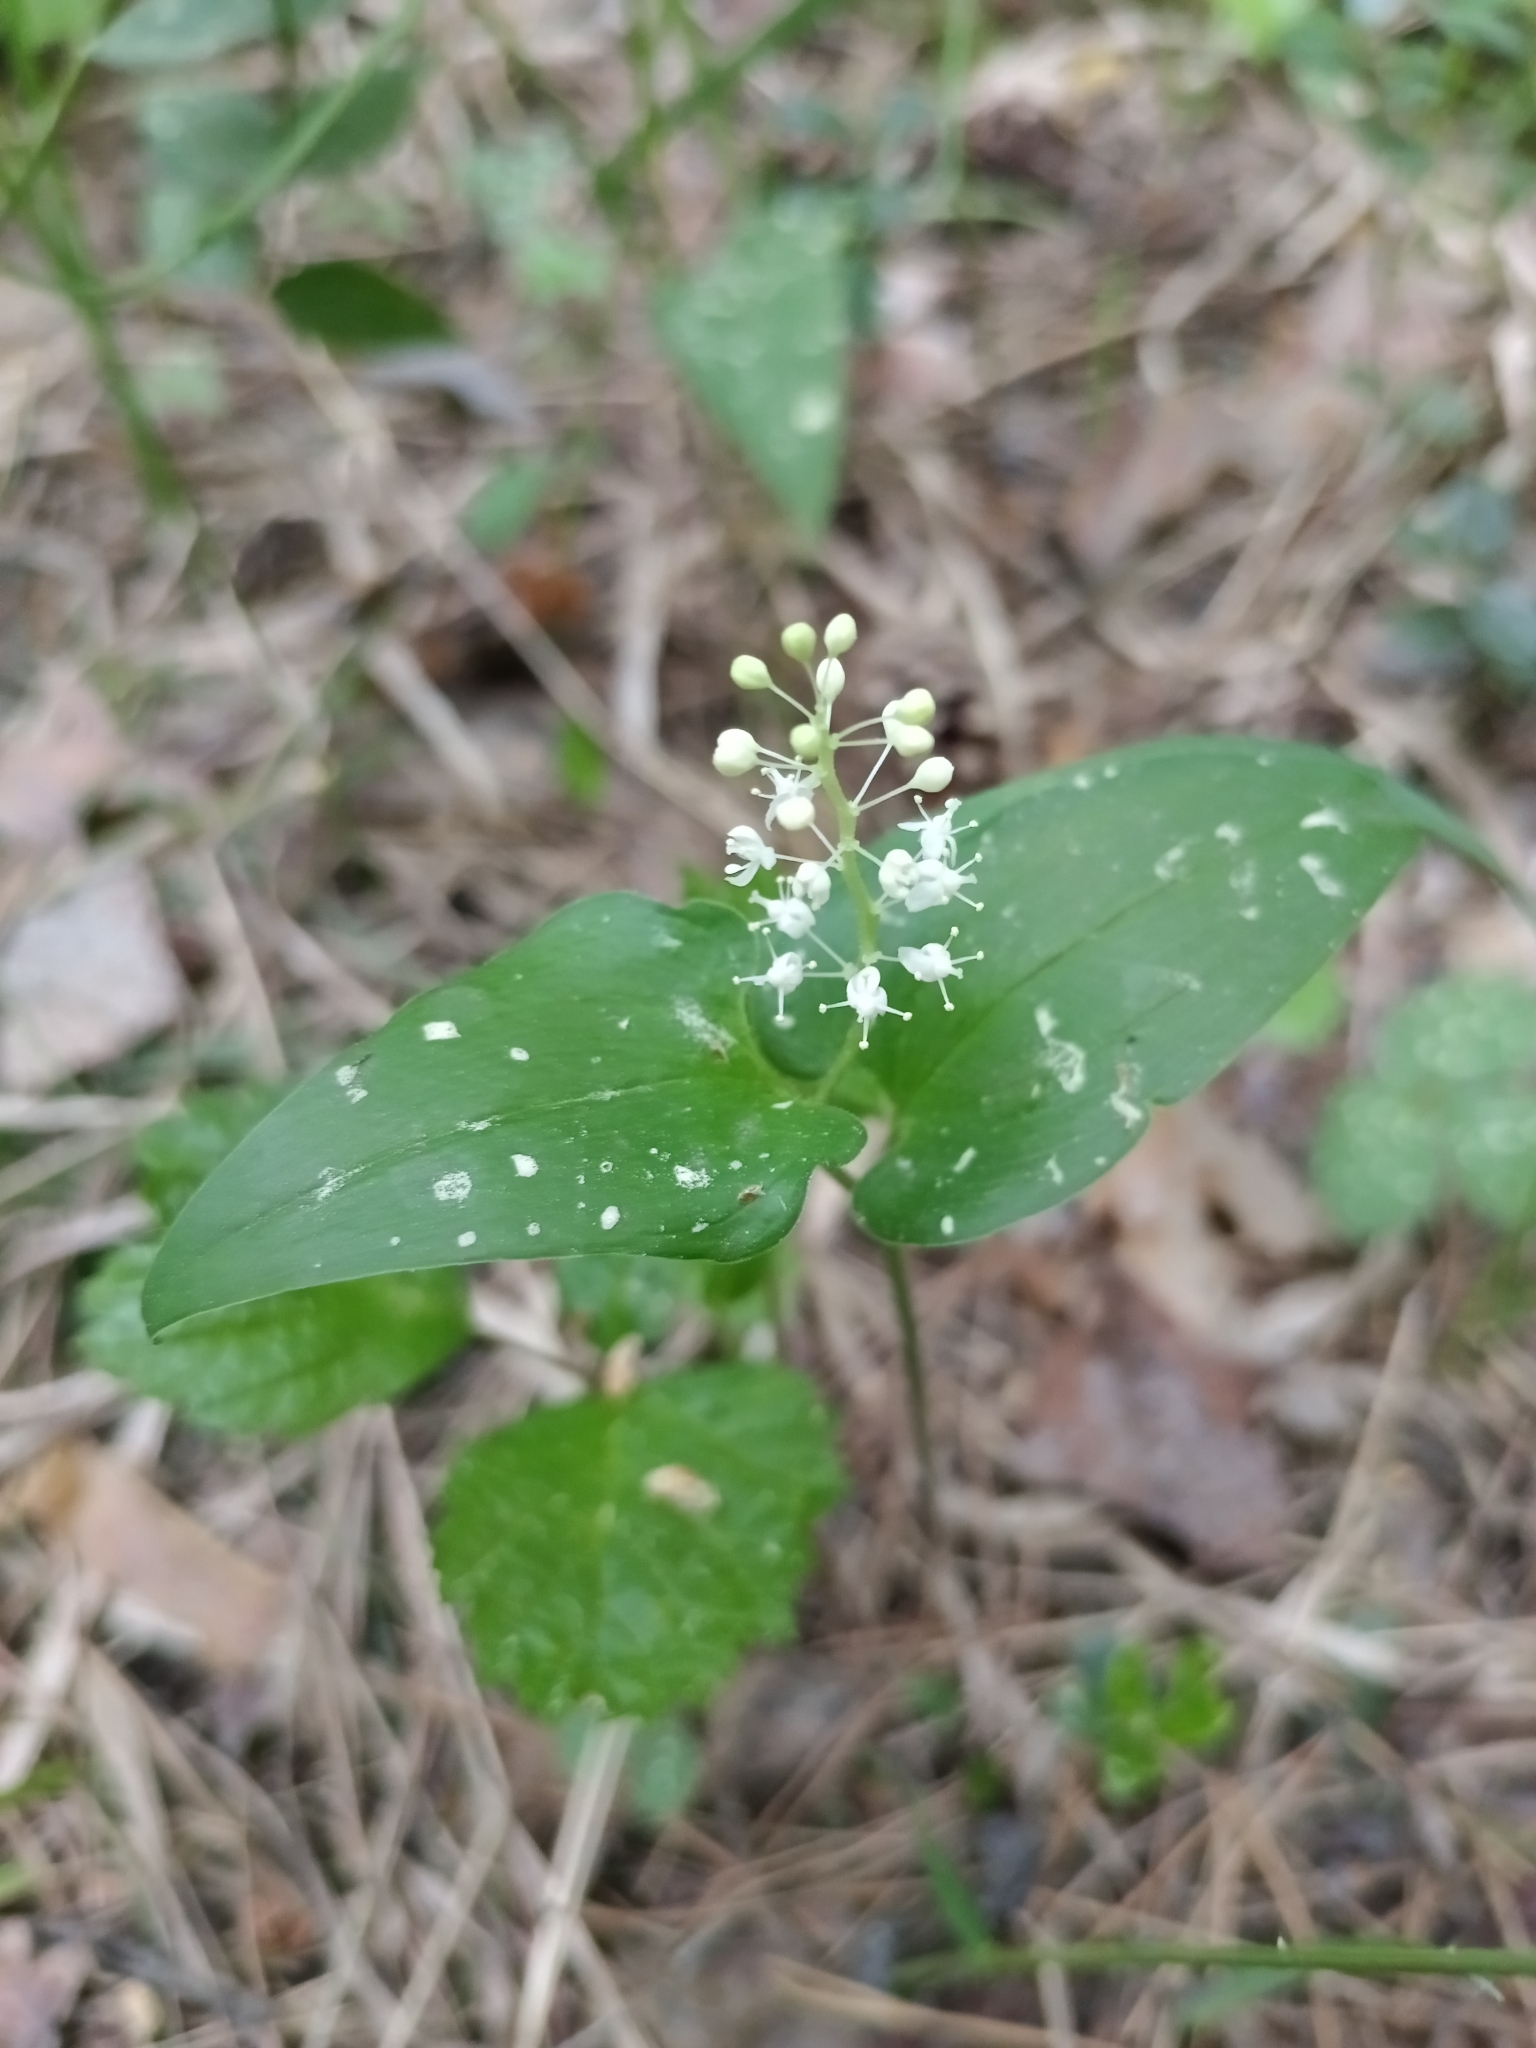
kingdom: Plantae
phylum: Tracheophyta
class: Liliopsida
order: Asparagales
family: Asparagaceae
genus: Maianthemum
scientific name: Maianthemum bifolium
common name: May lily
